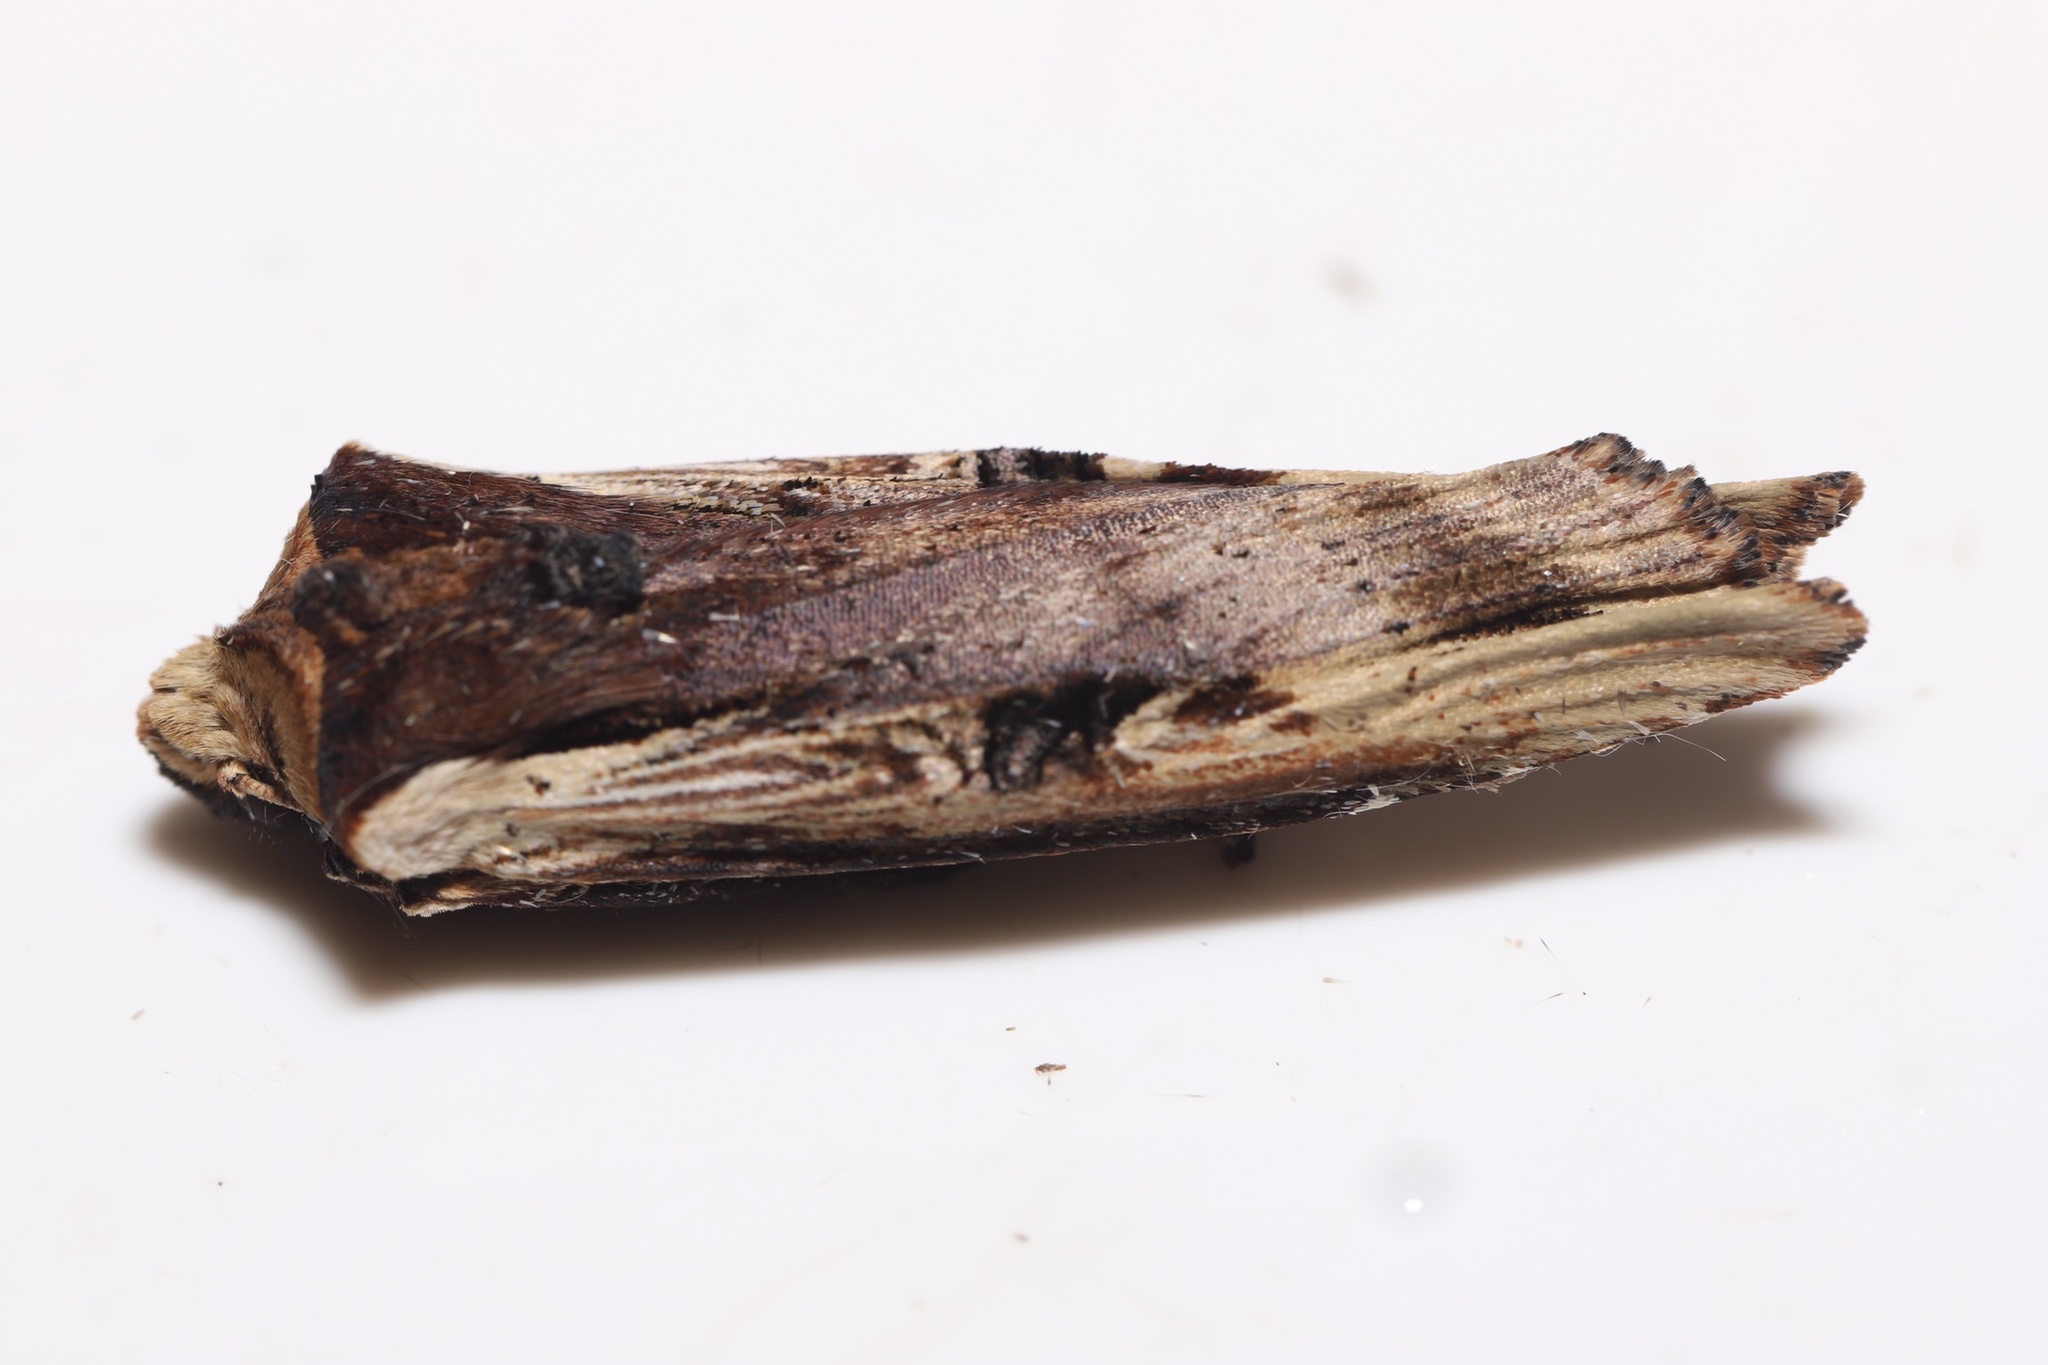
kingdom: Animalia
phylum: Arthropoda
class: Insecta
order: Lepidoptera
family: Noctuidae
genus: Xylena
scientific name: Xylena curvimacula
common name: Dot-and-dash swordgrass moth
